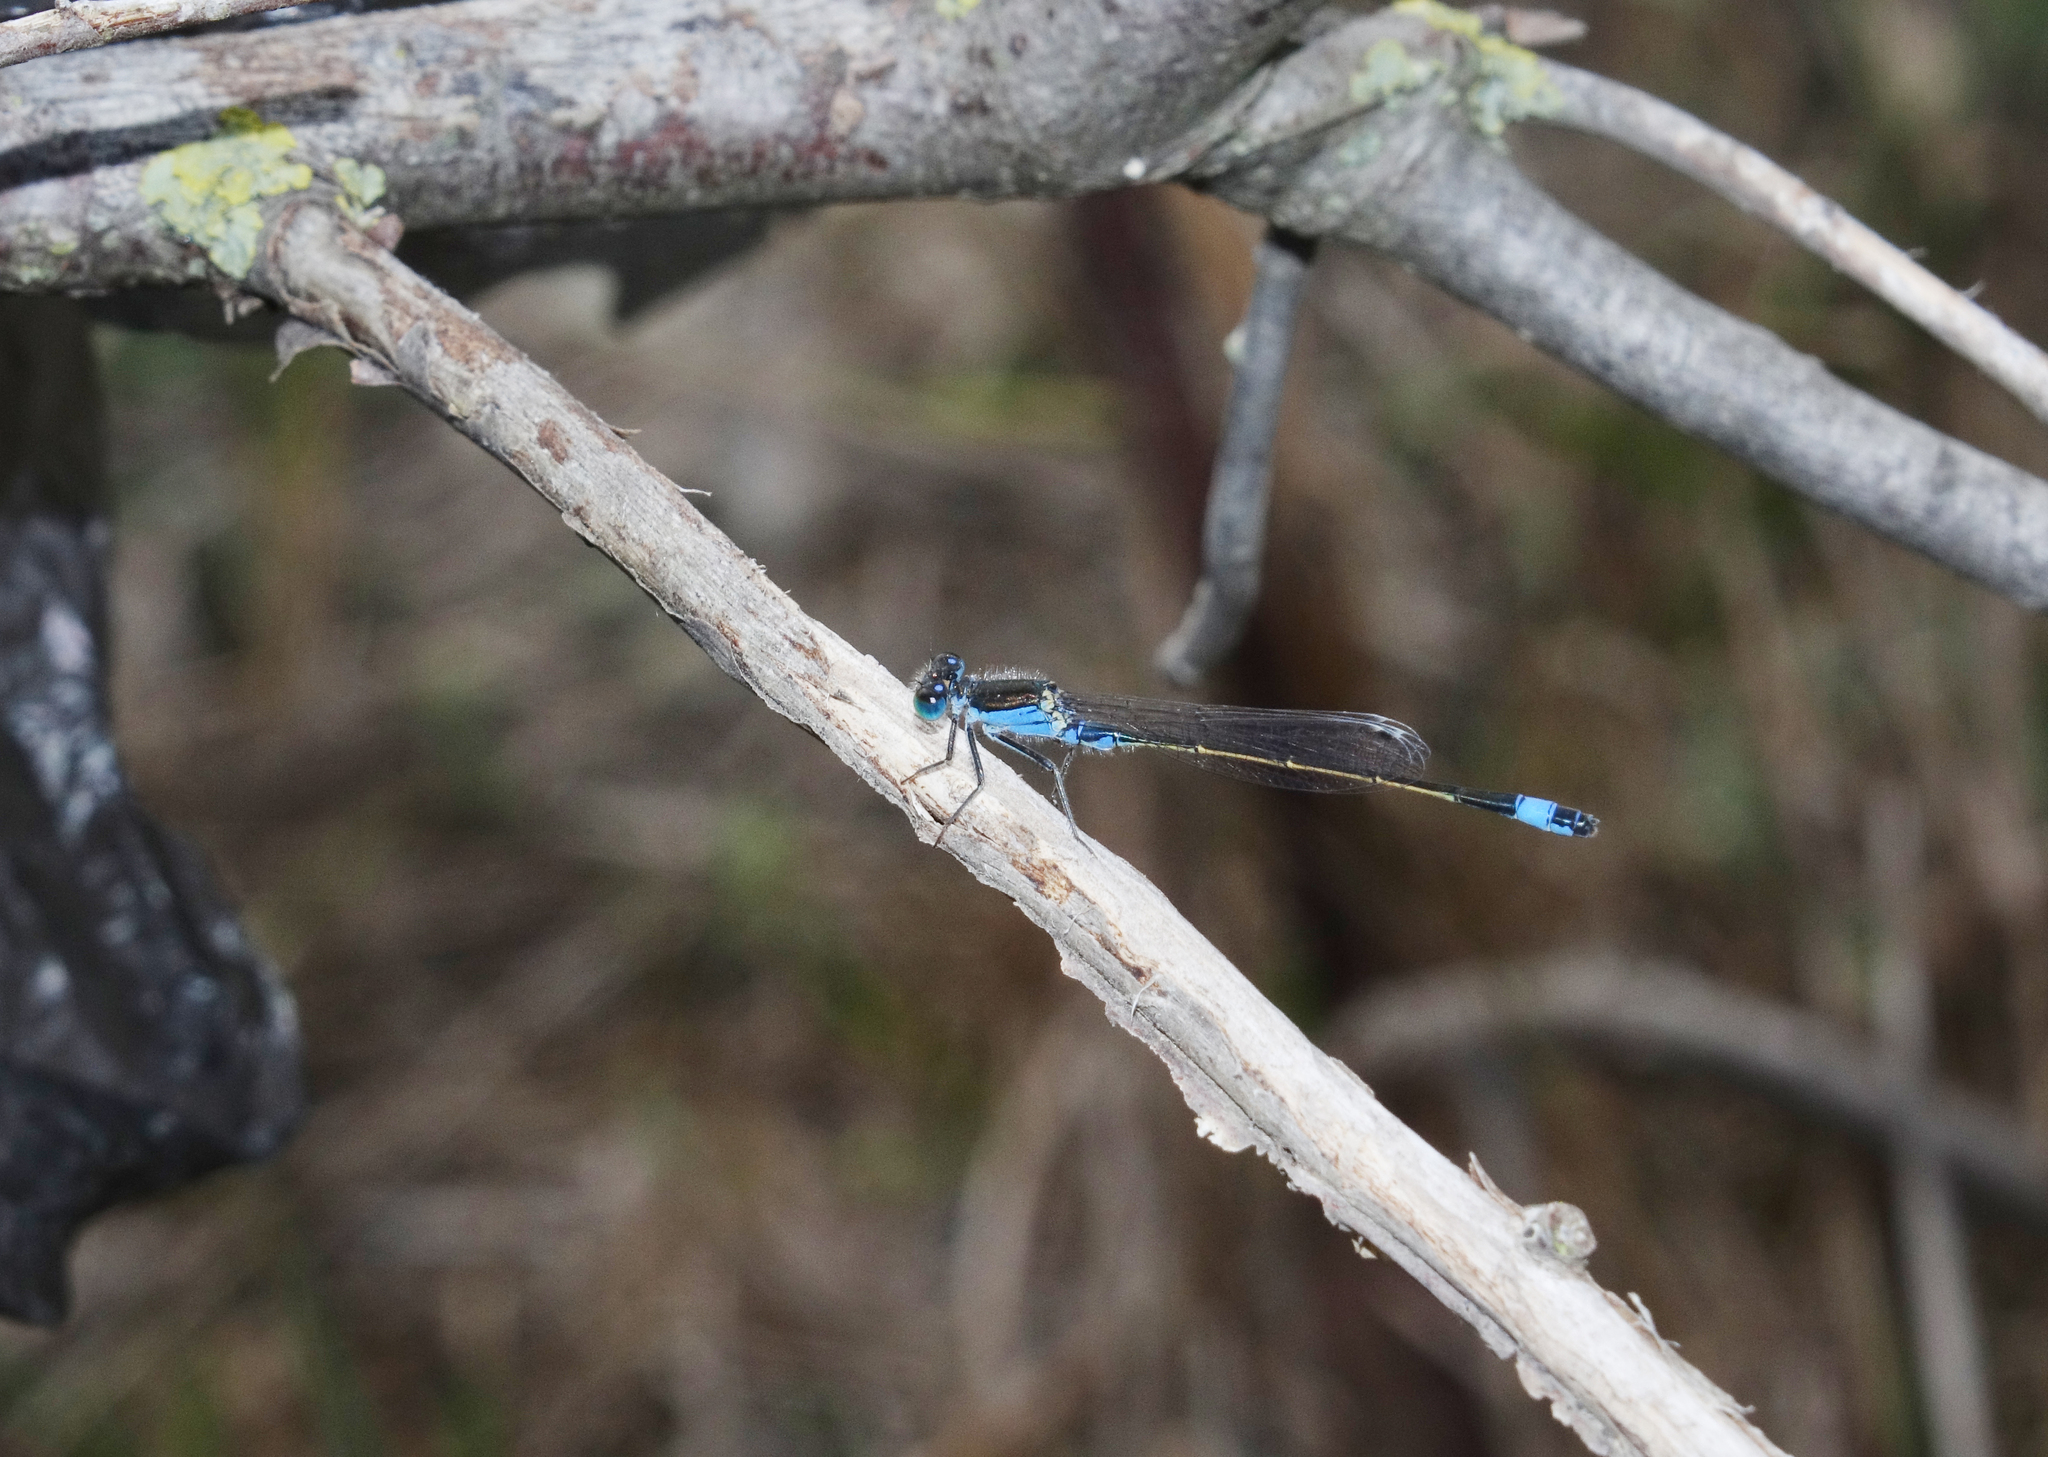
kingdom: Animalia
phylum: Arthropoda
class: Insecta
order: Odonata
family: Coenagrionidae
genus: Ischnura
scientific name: Ischnura fountaineae
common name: Oasis bluetail
